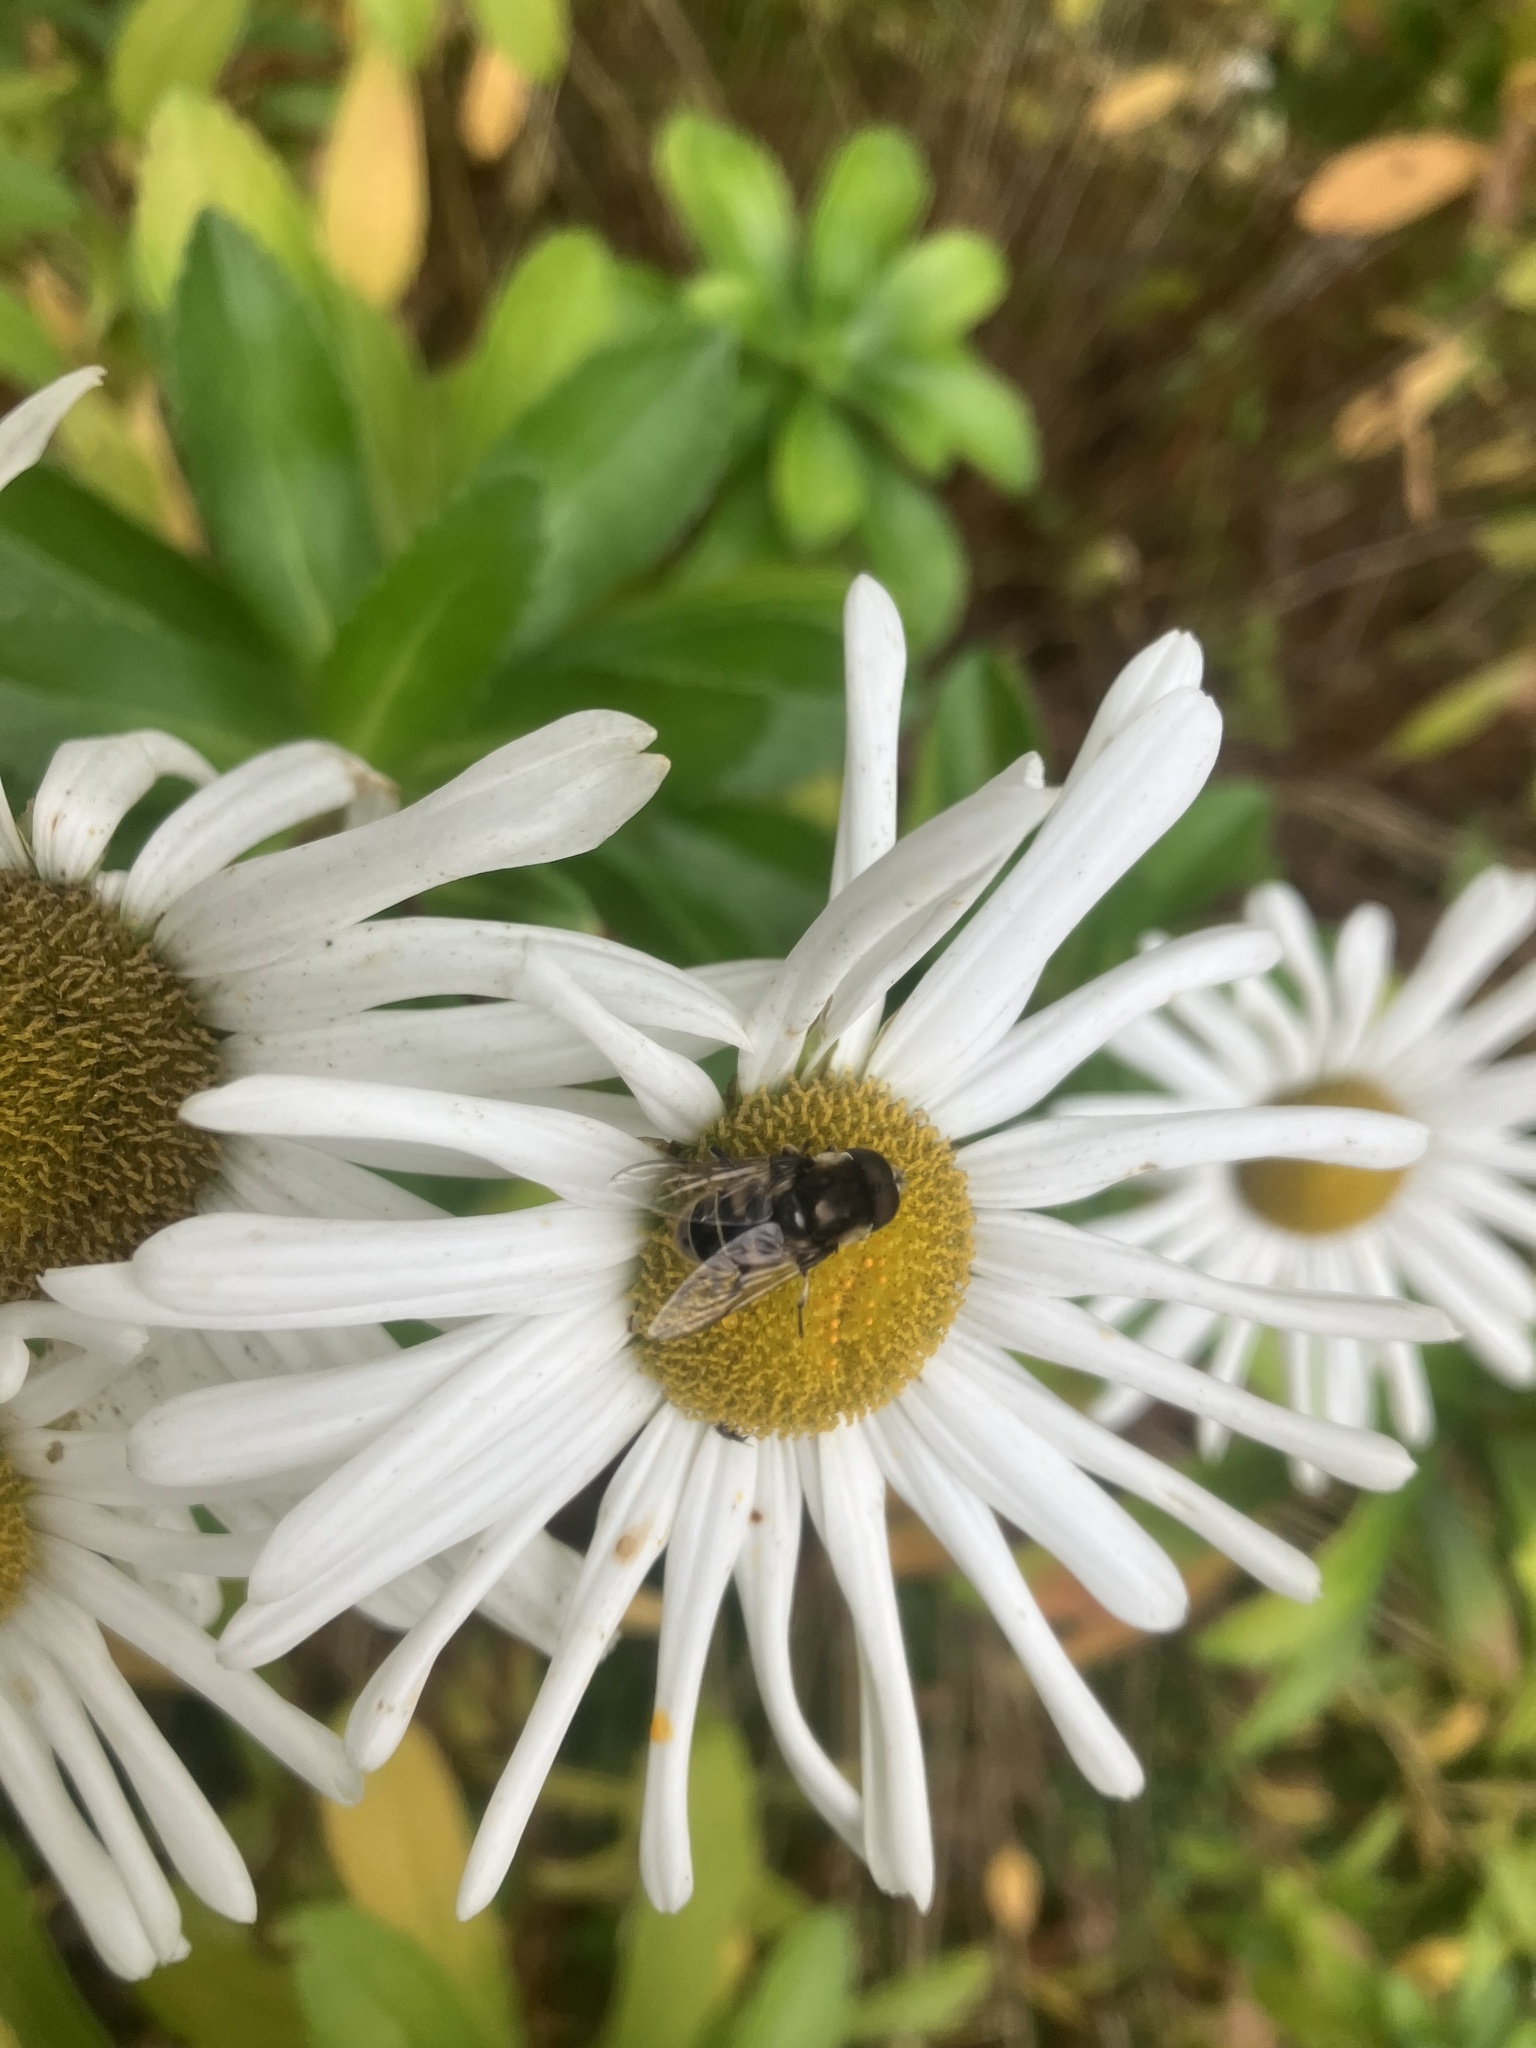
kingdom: Animalia
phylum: Arthropoda
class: Insecta
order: Diptera
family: Syrphidae
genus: Eristalis
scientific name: Eristalis dimidiata
